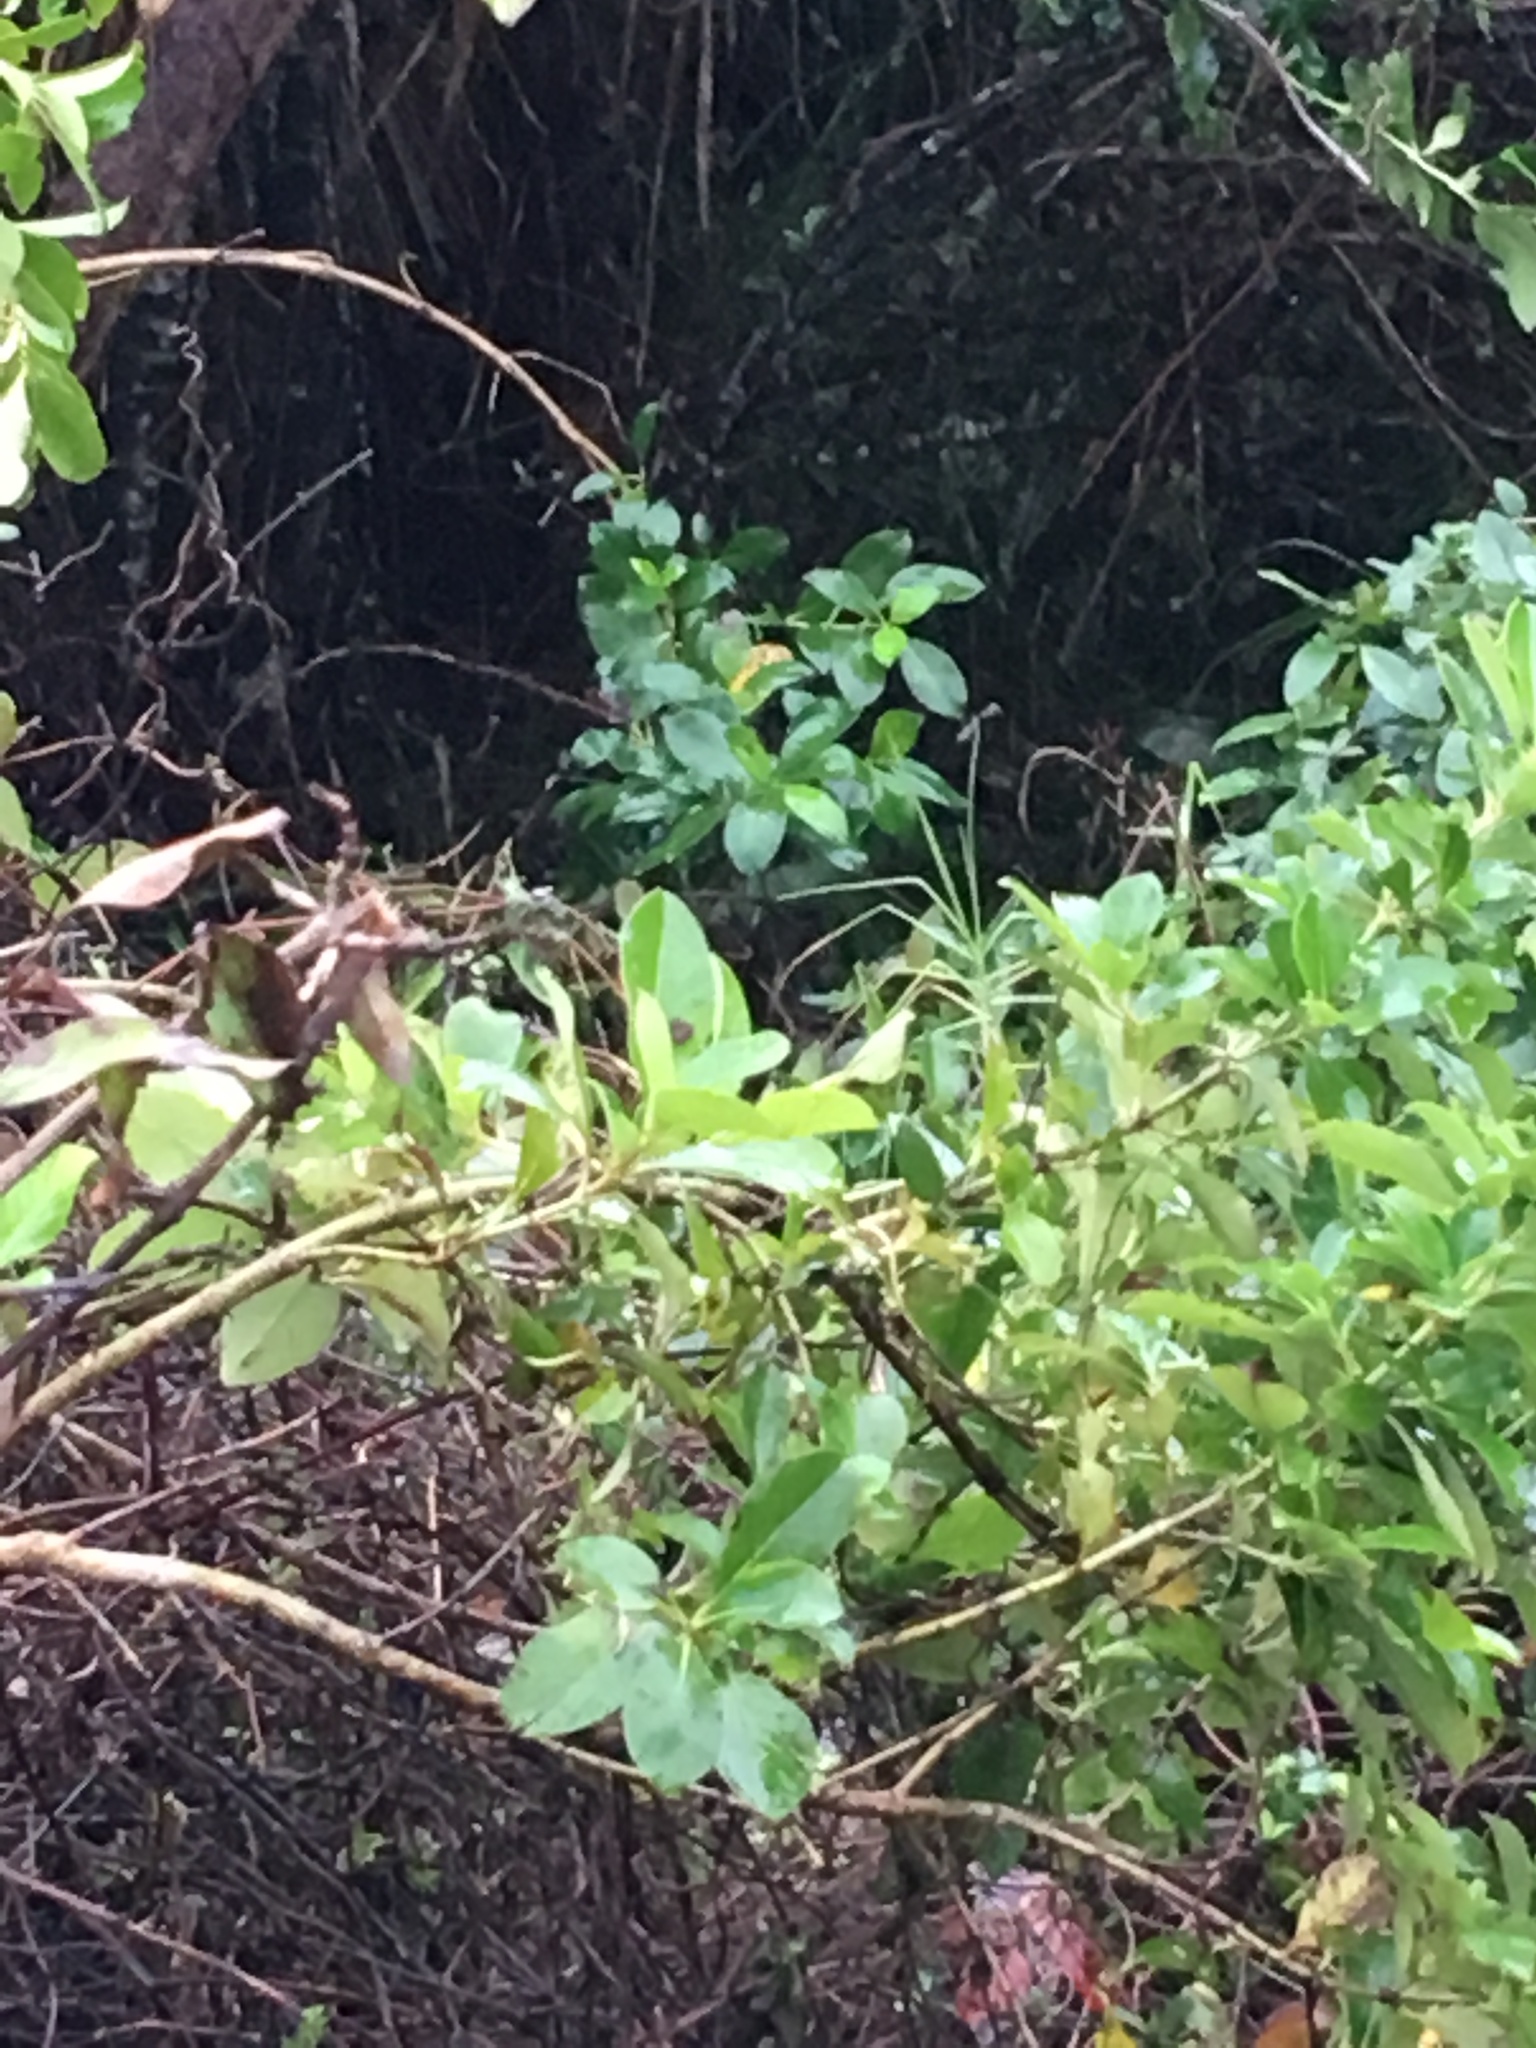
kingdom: Plantae
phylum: Tracheophyta
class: Magnoliopsida
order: Gentianales
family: Rubiaceae
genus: Coprosma
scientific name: Coprosma robusta
